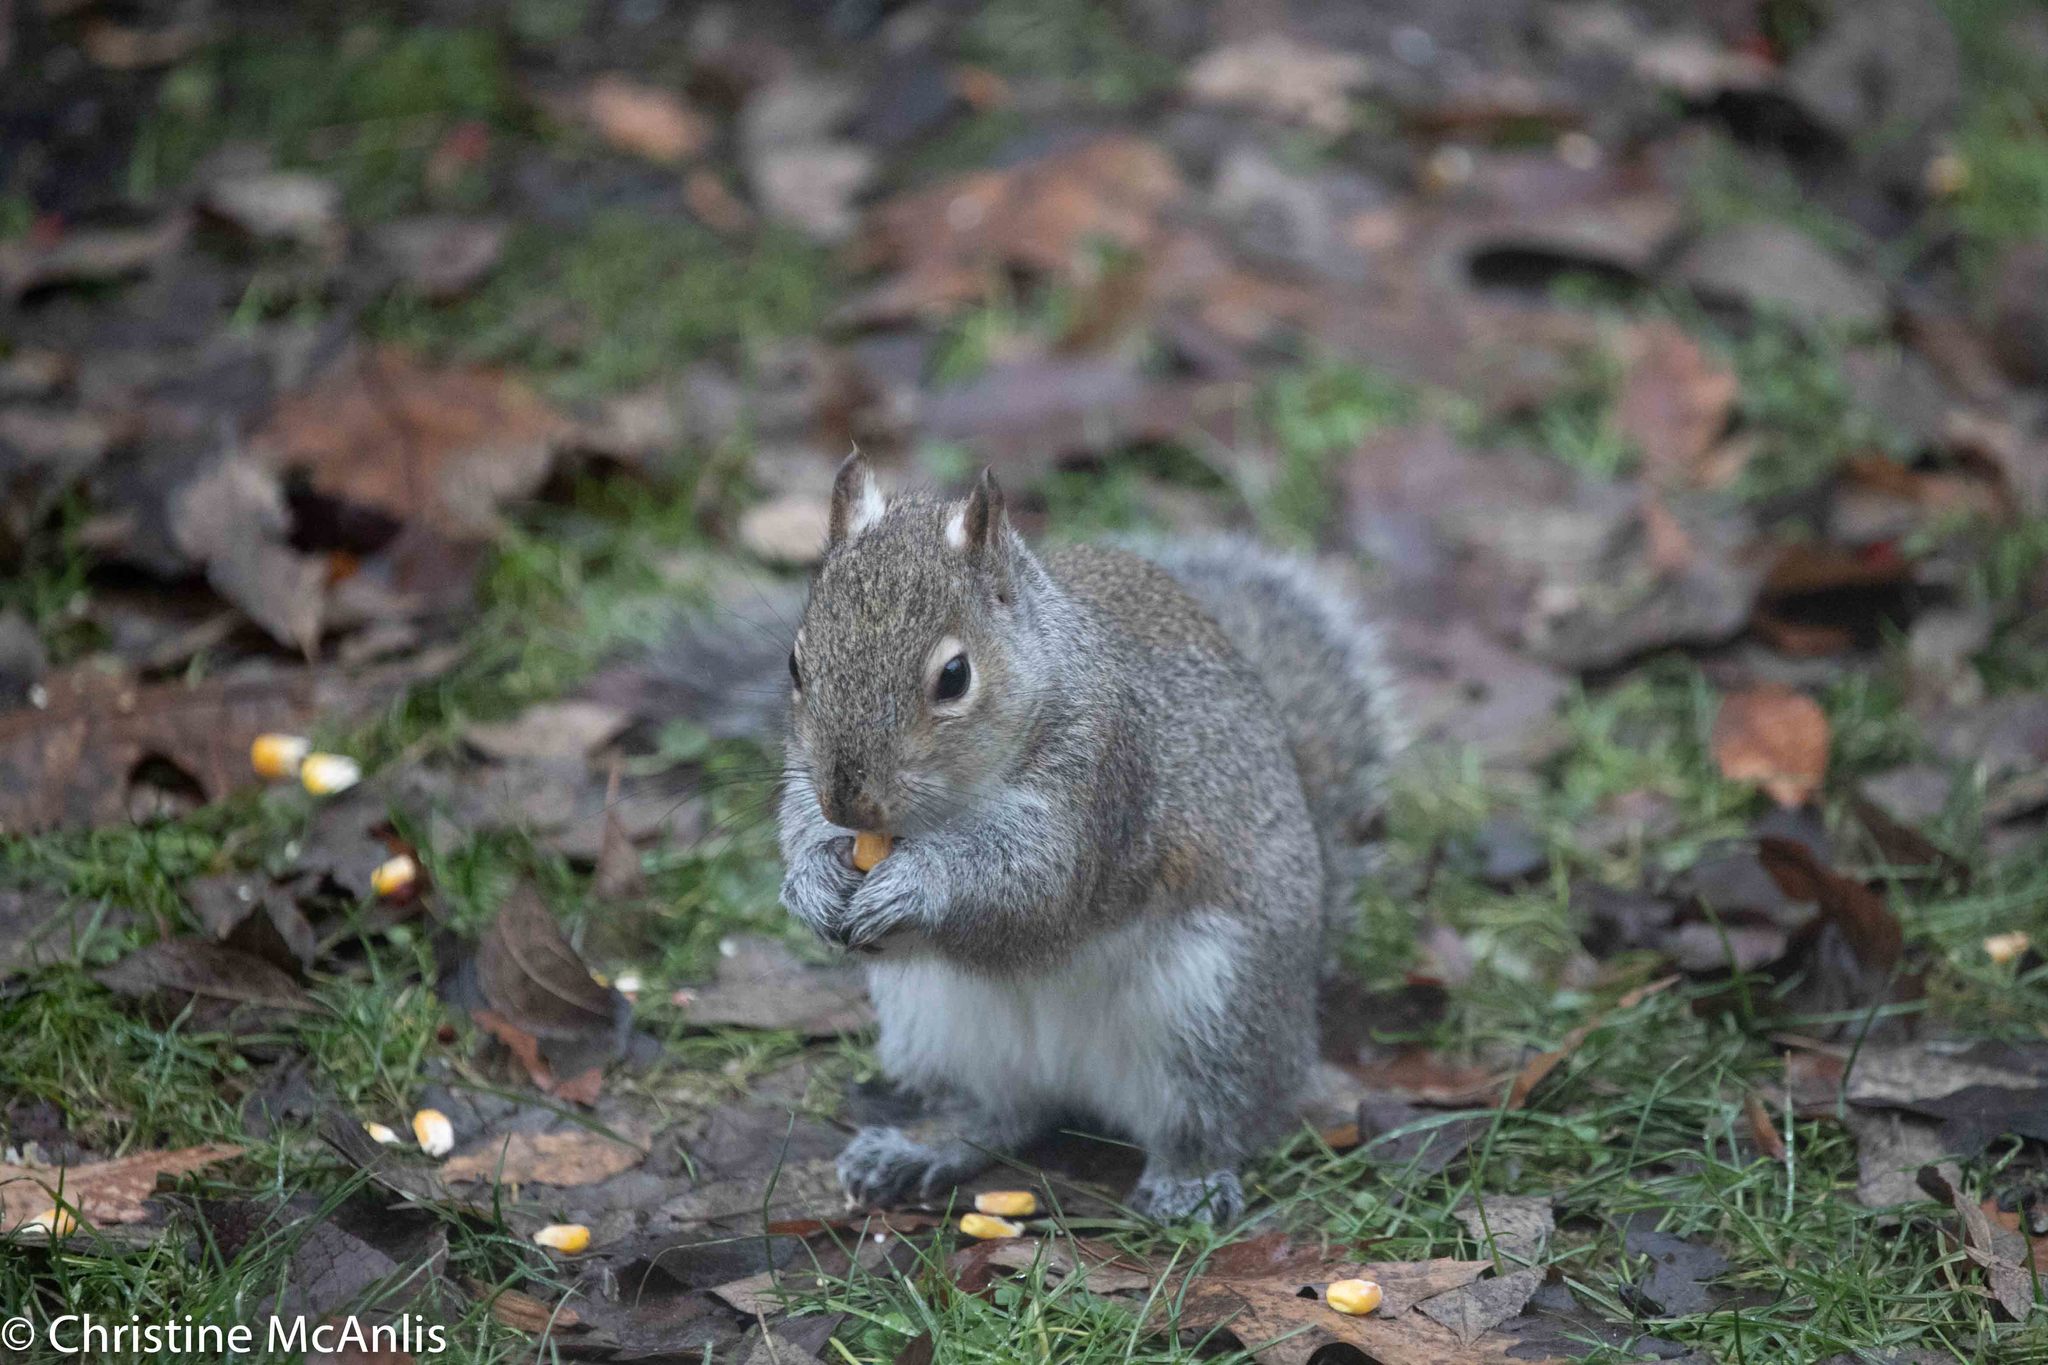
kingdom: Animalia
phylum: Chordata
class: Mammalia
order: Rodentia
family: Sciuridae
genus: Sciurus
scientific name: Sciurus carolinensis
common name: Eastern gray squirrel
